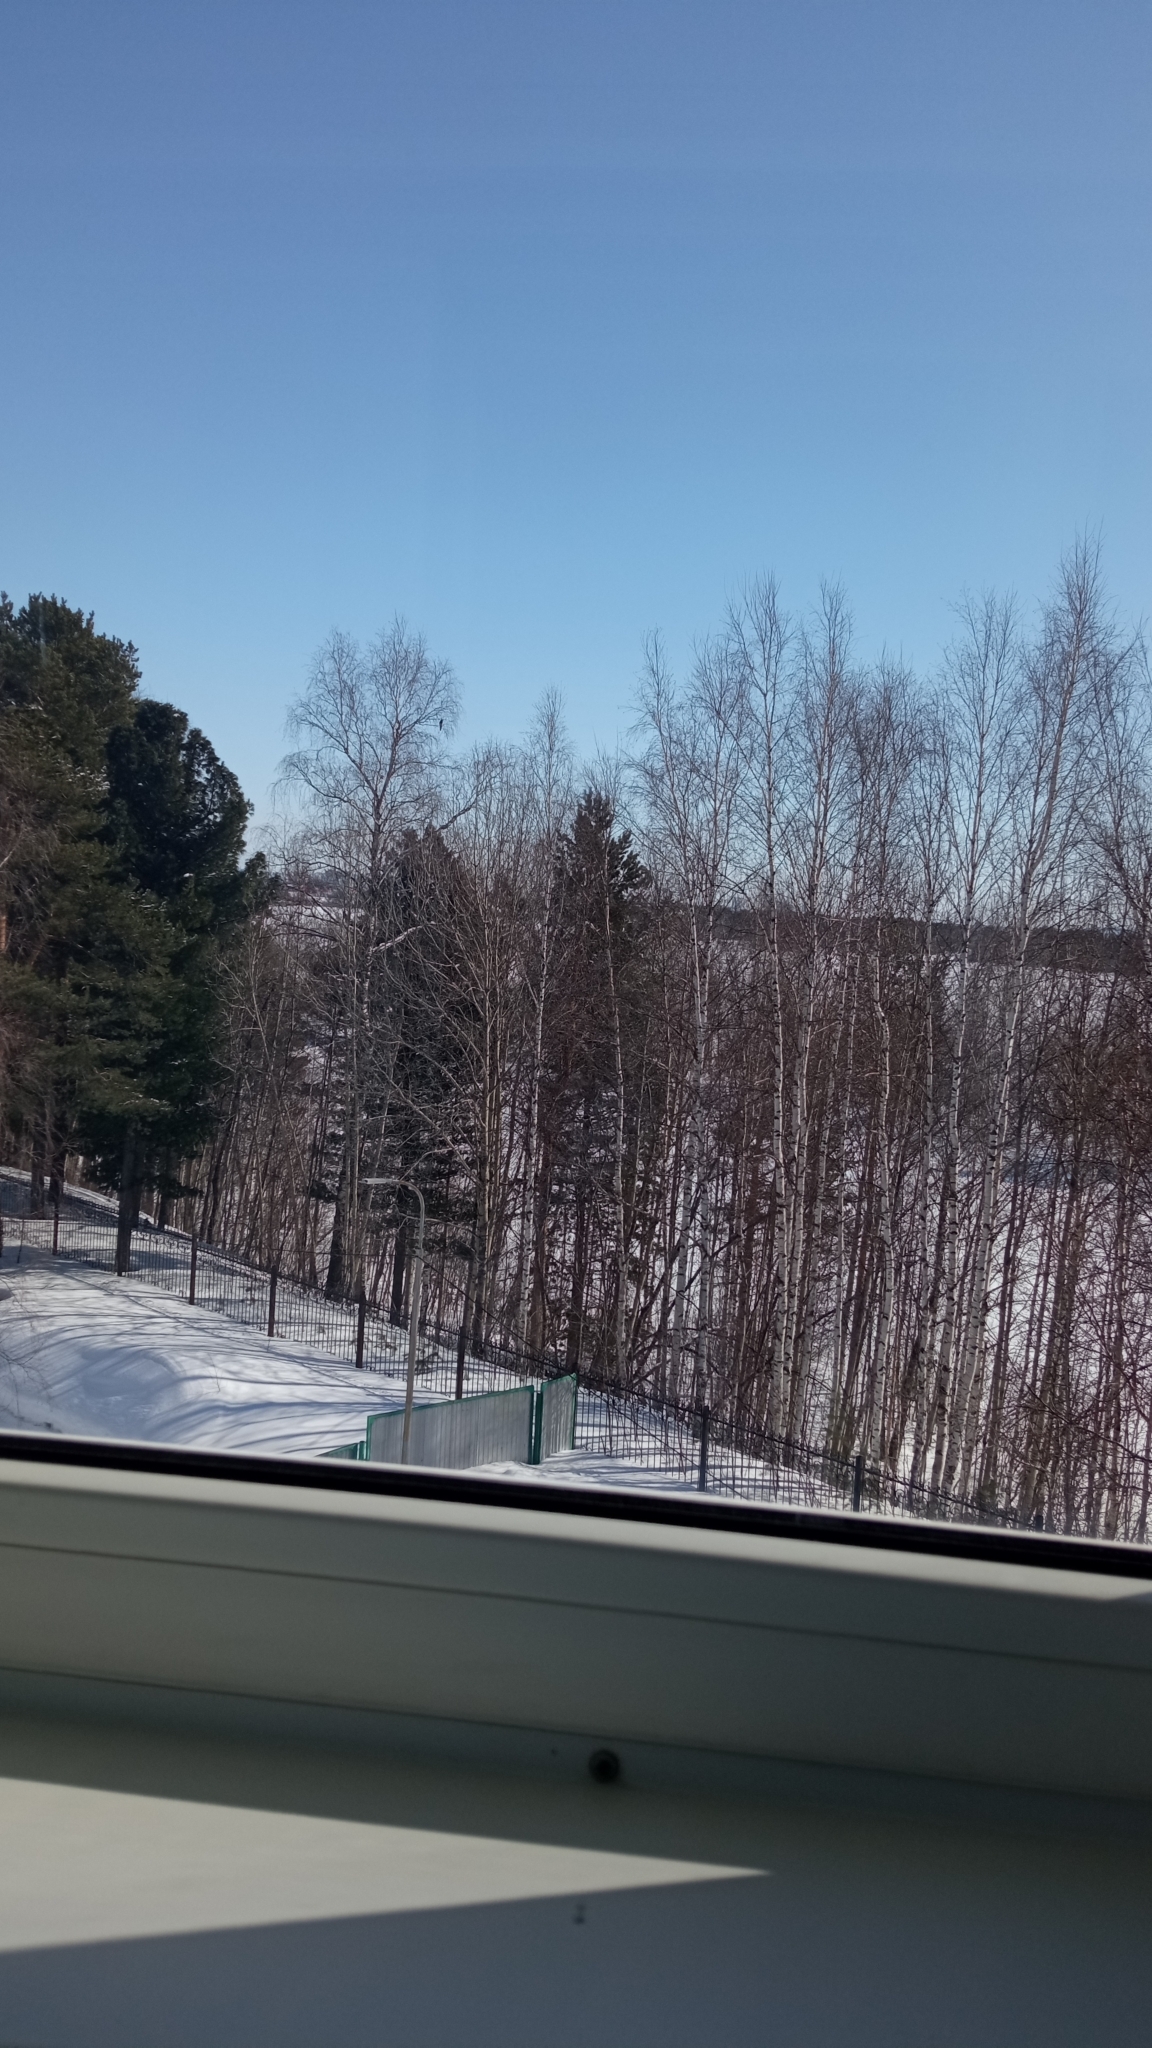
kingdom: Animalia
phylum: Chordata
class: Aves
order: Passeriformes
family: Corvidae
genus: Pica
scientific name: Pica pica
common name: Eurasian magpie
